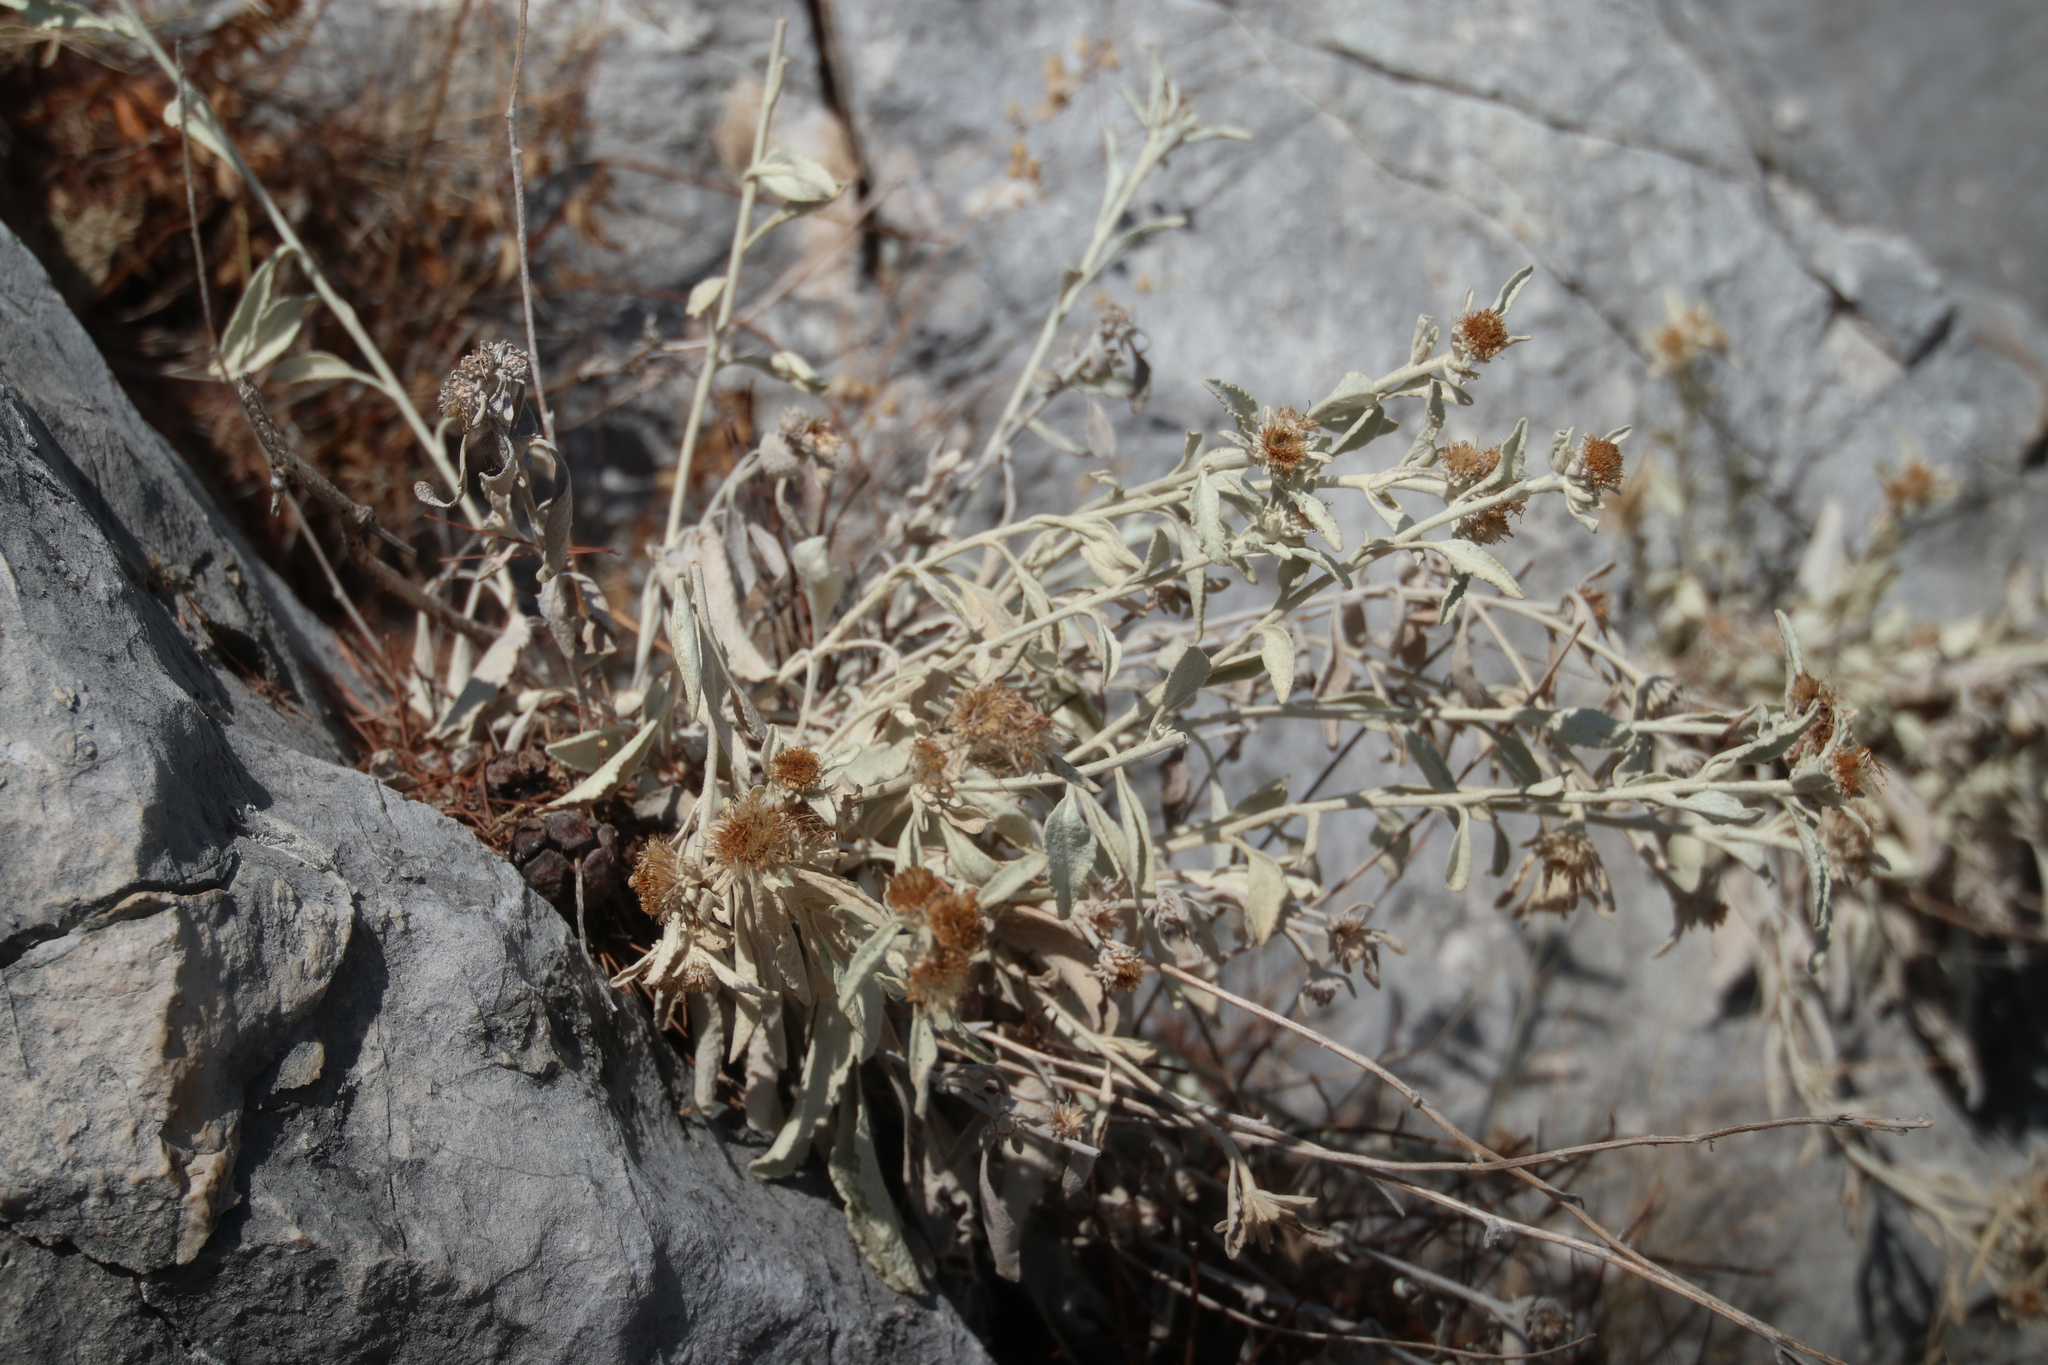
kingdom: Plantae
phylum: Tracheophyta
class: Magnoliopsida
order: Asterales
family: Asteraceae
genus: Pentanema
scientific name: Pentanema verbascifolium
